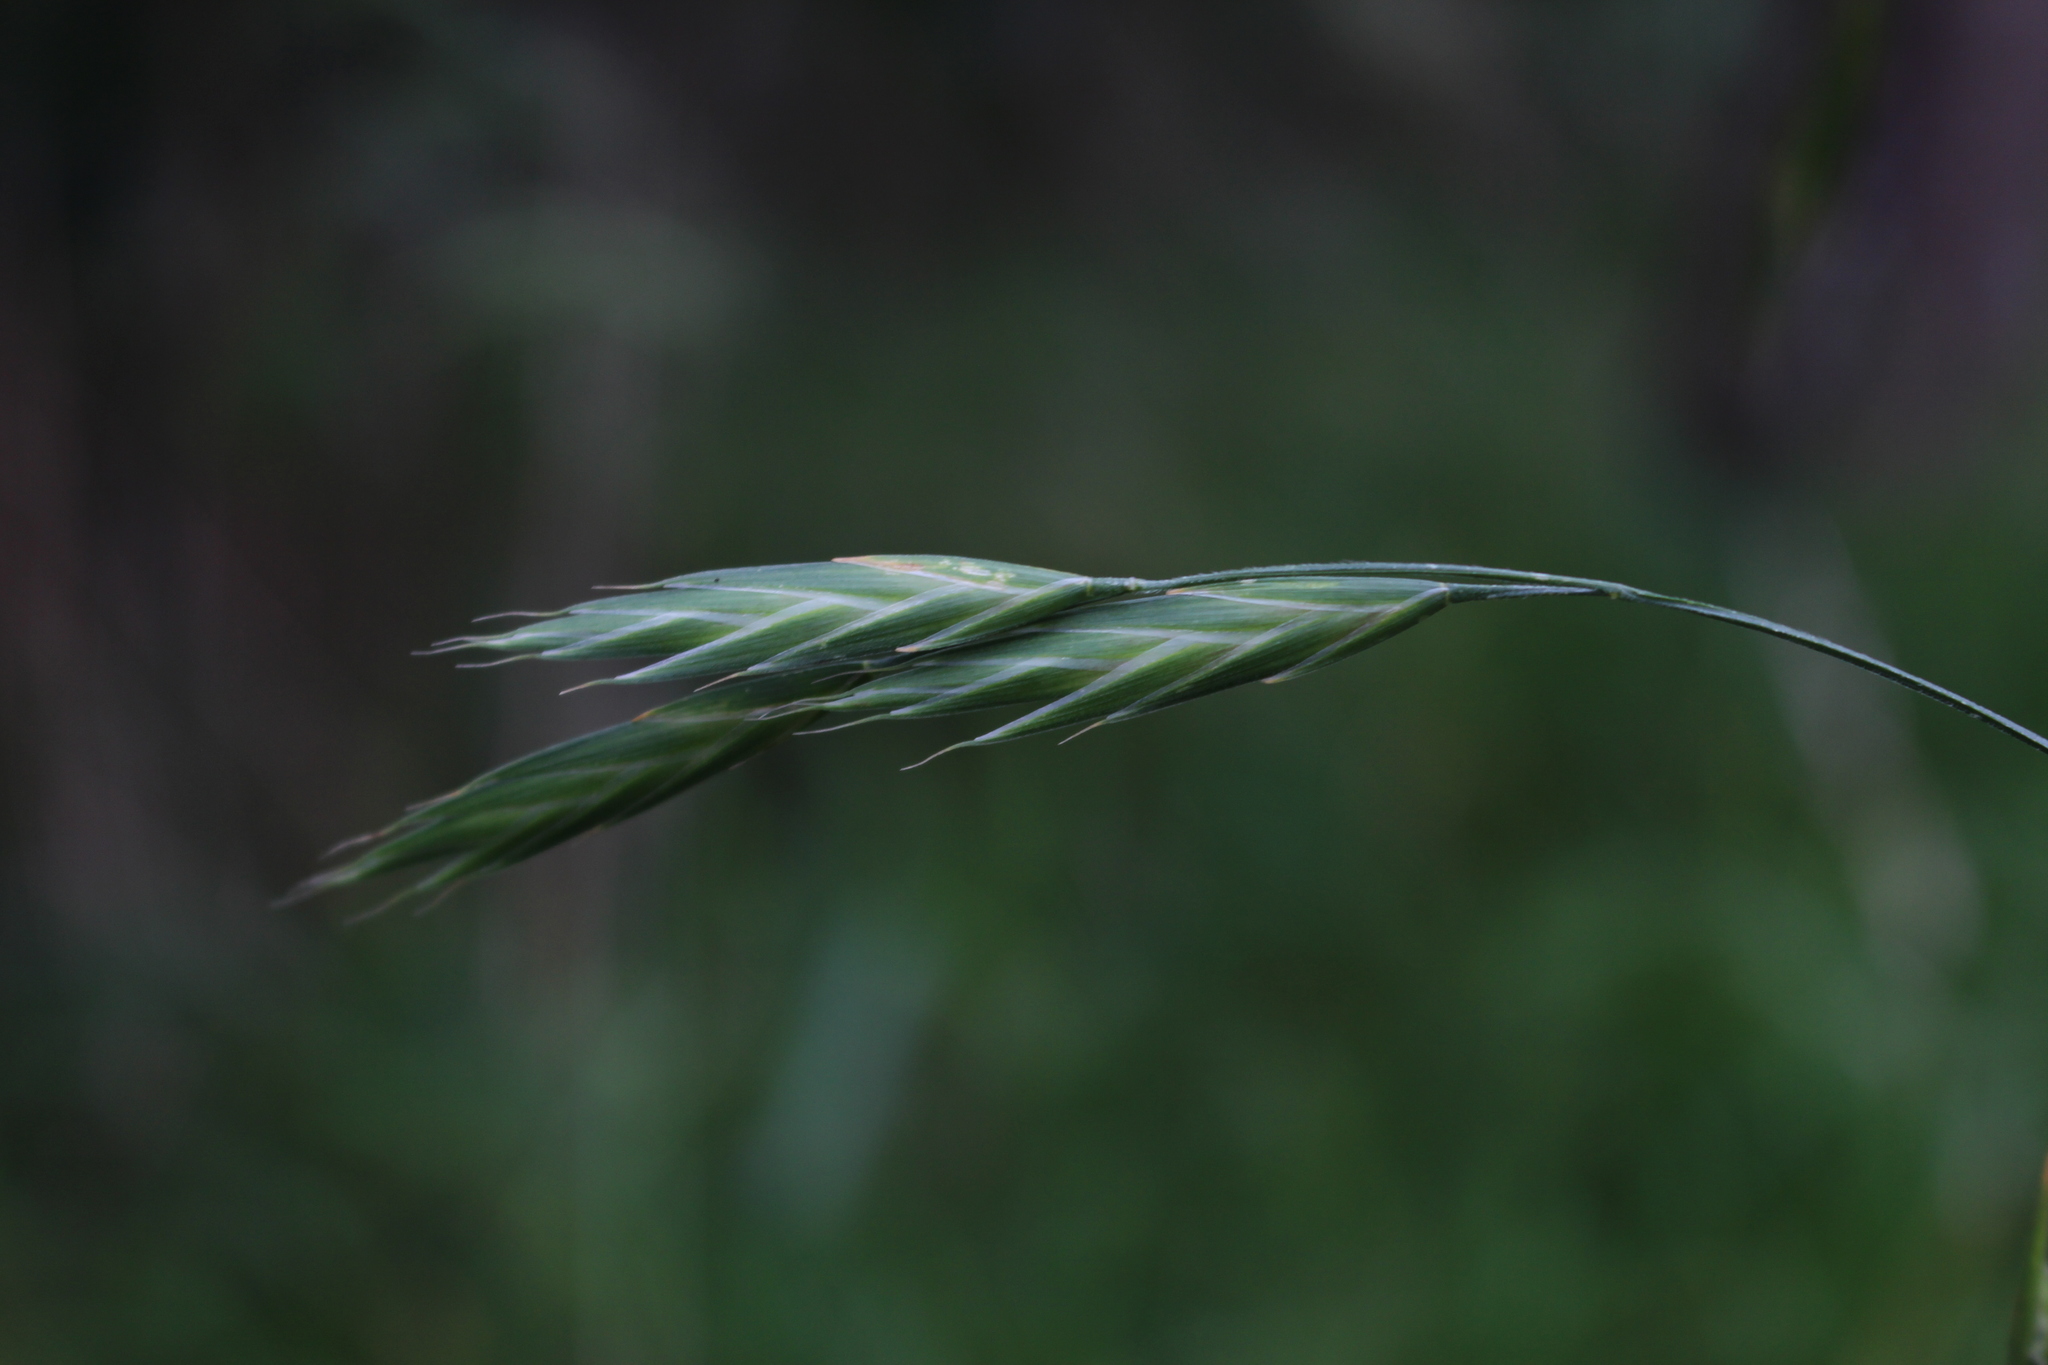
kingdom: Plantae
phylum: Tracheophyta
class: Liliopsida
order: Poales
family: Poaceae
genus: Bromus
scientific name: Bromus catharticus
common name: Rescuegrass
